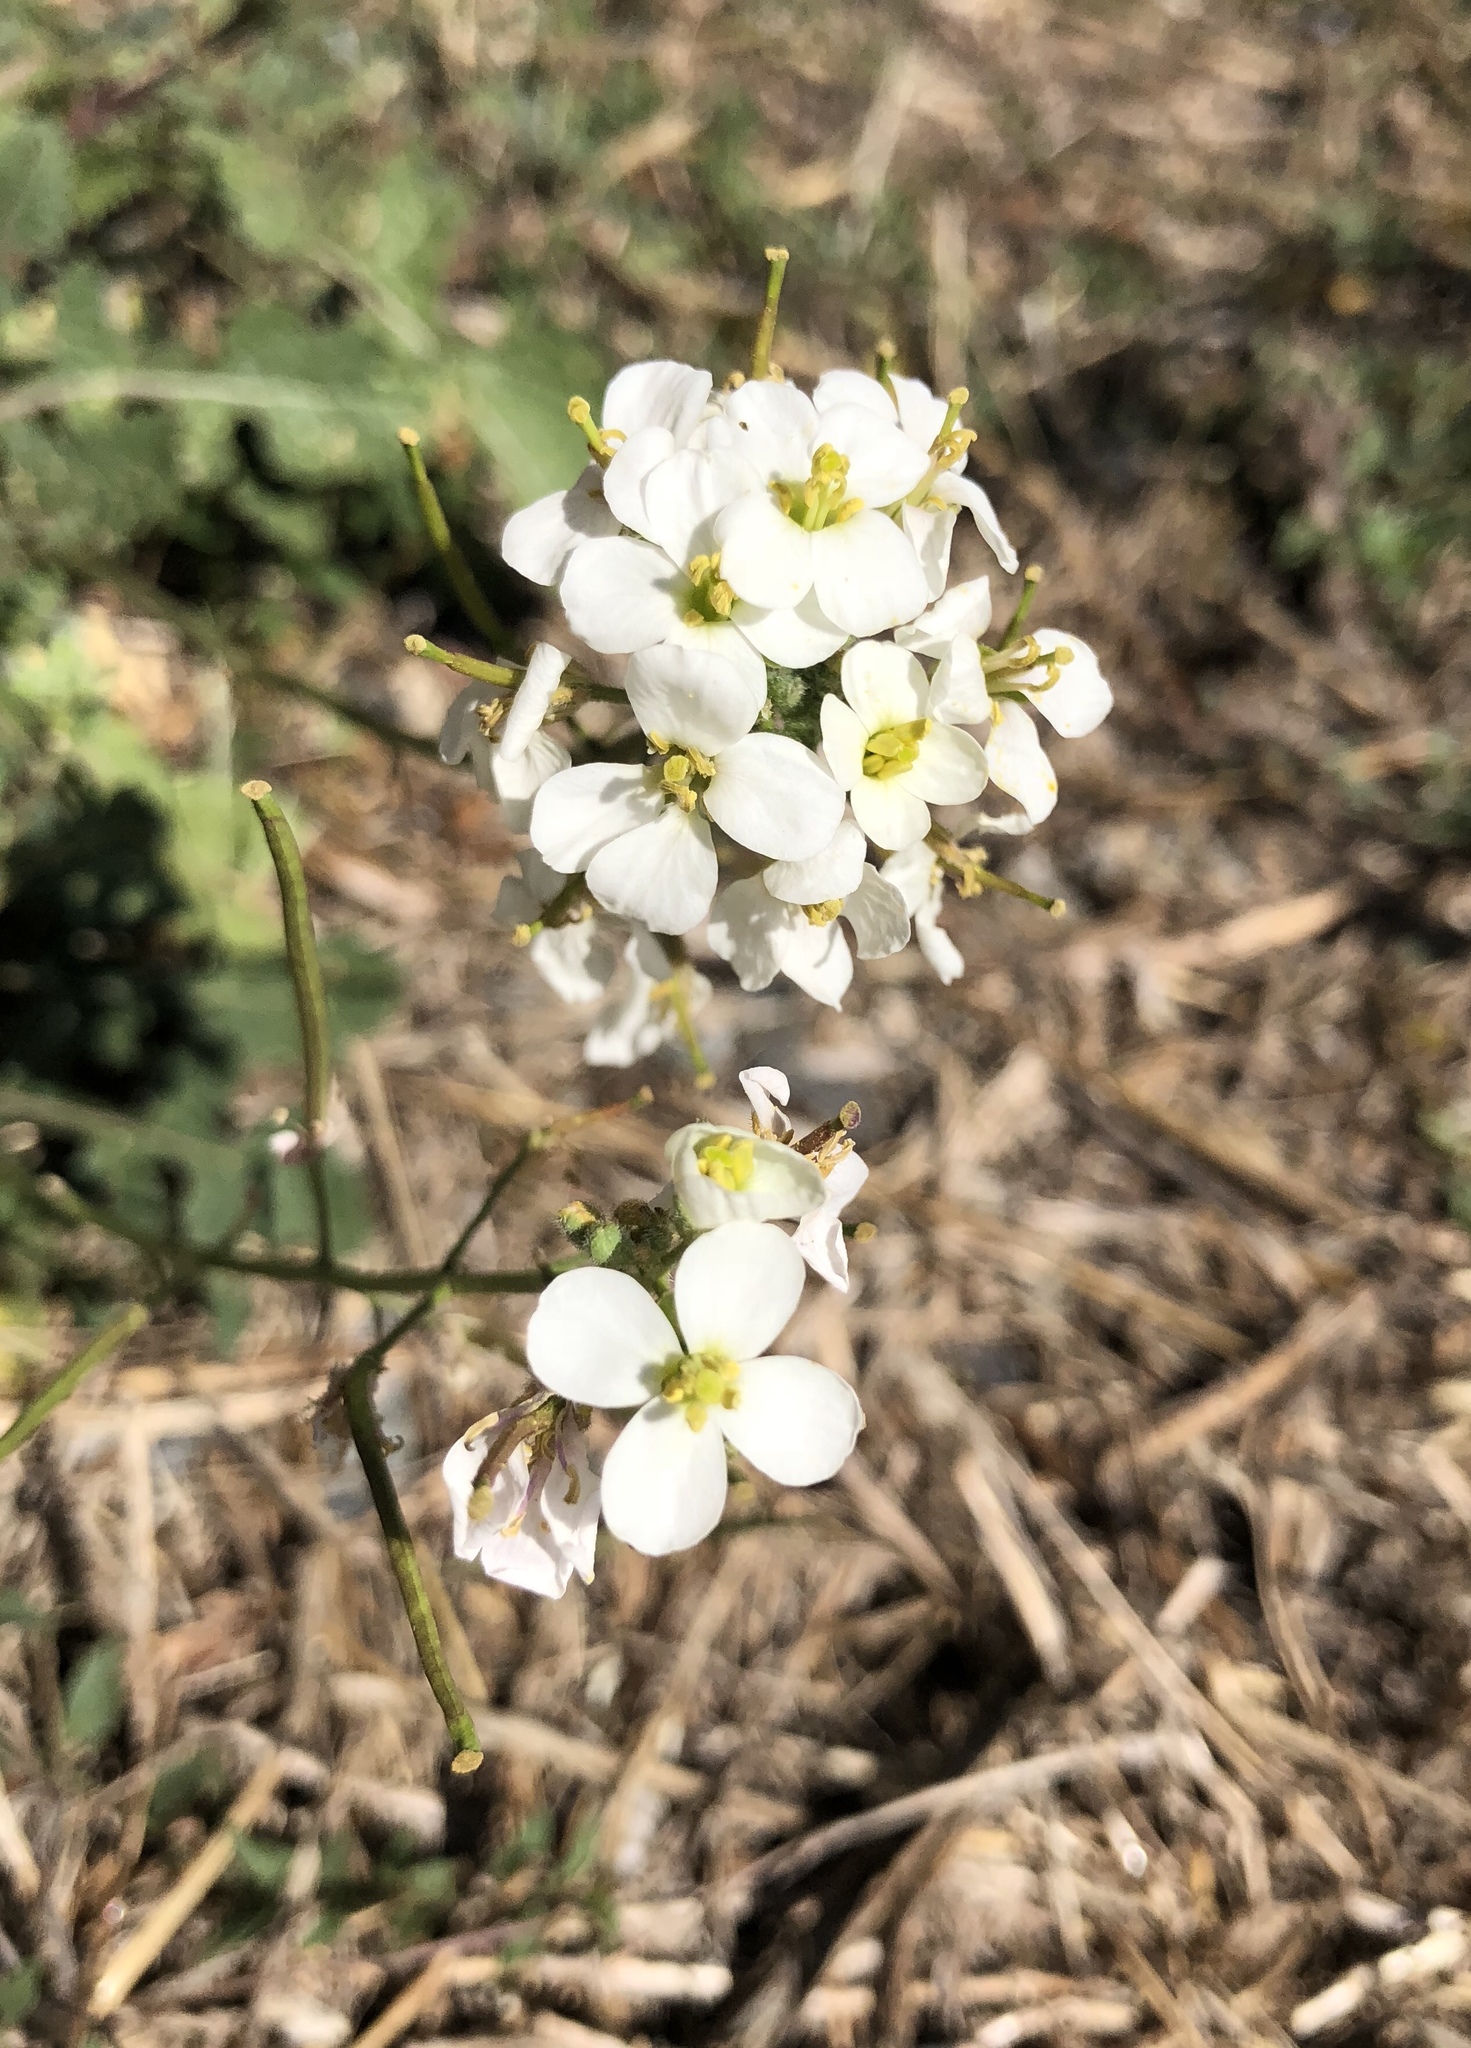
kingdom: Plantae
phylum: Tracheophyta
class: Magnoliopsida
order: Brassicales
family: Brassicaceae
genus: Diplotaxis
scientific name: Diplotaxis erucoides
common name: White rocket
